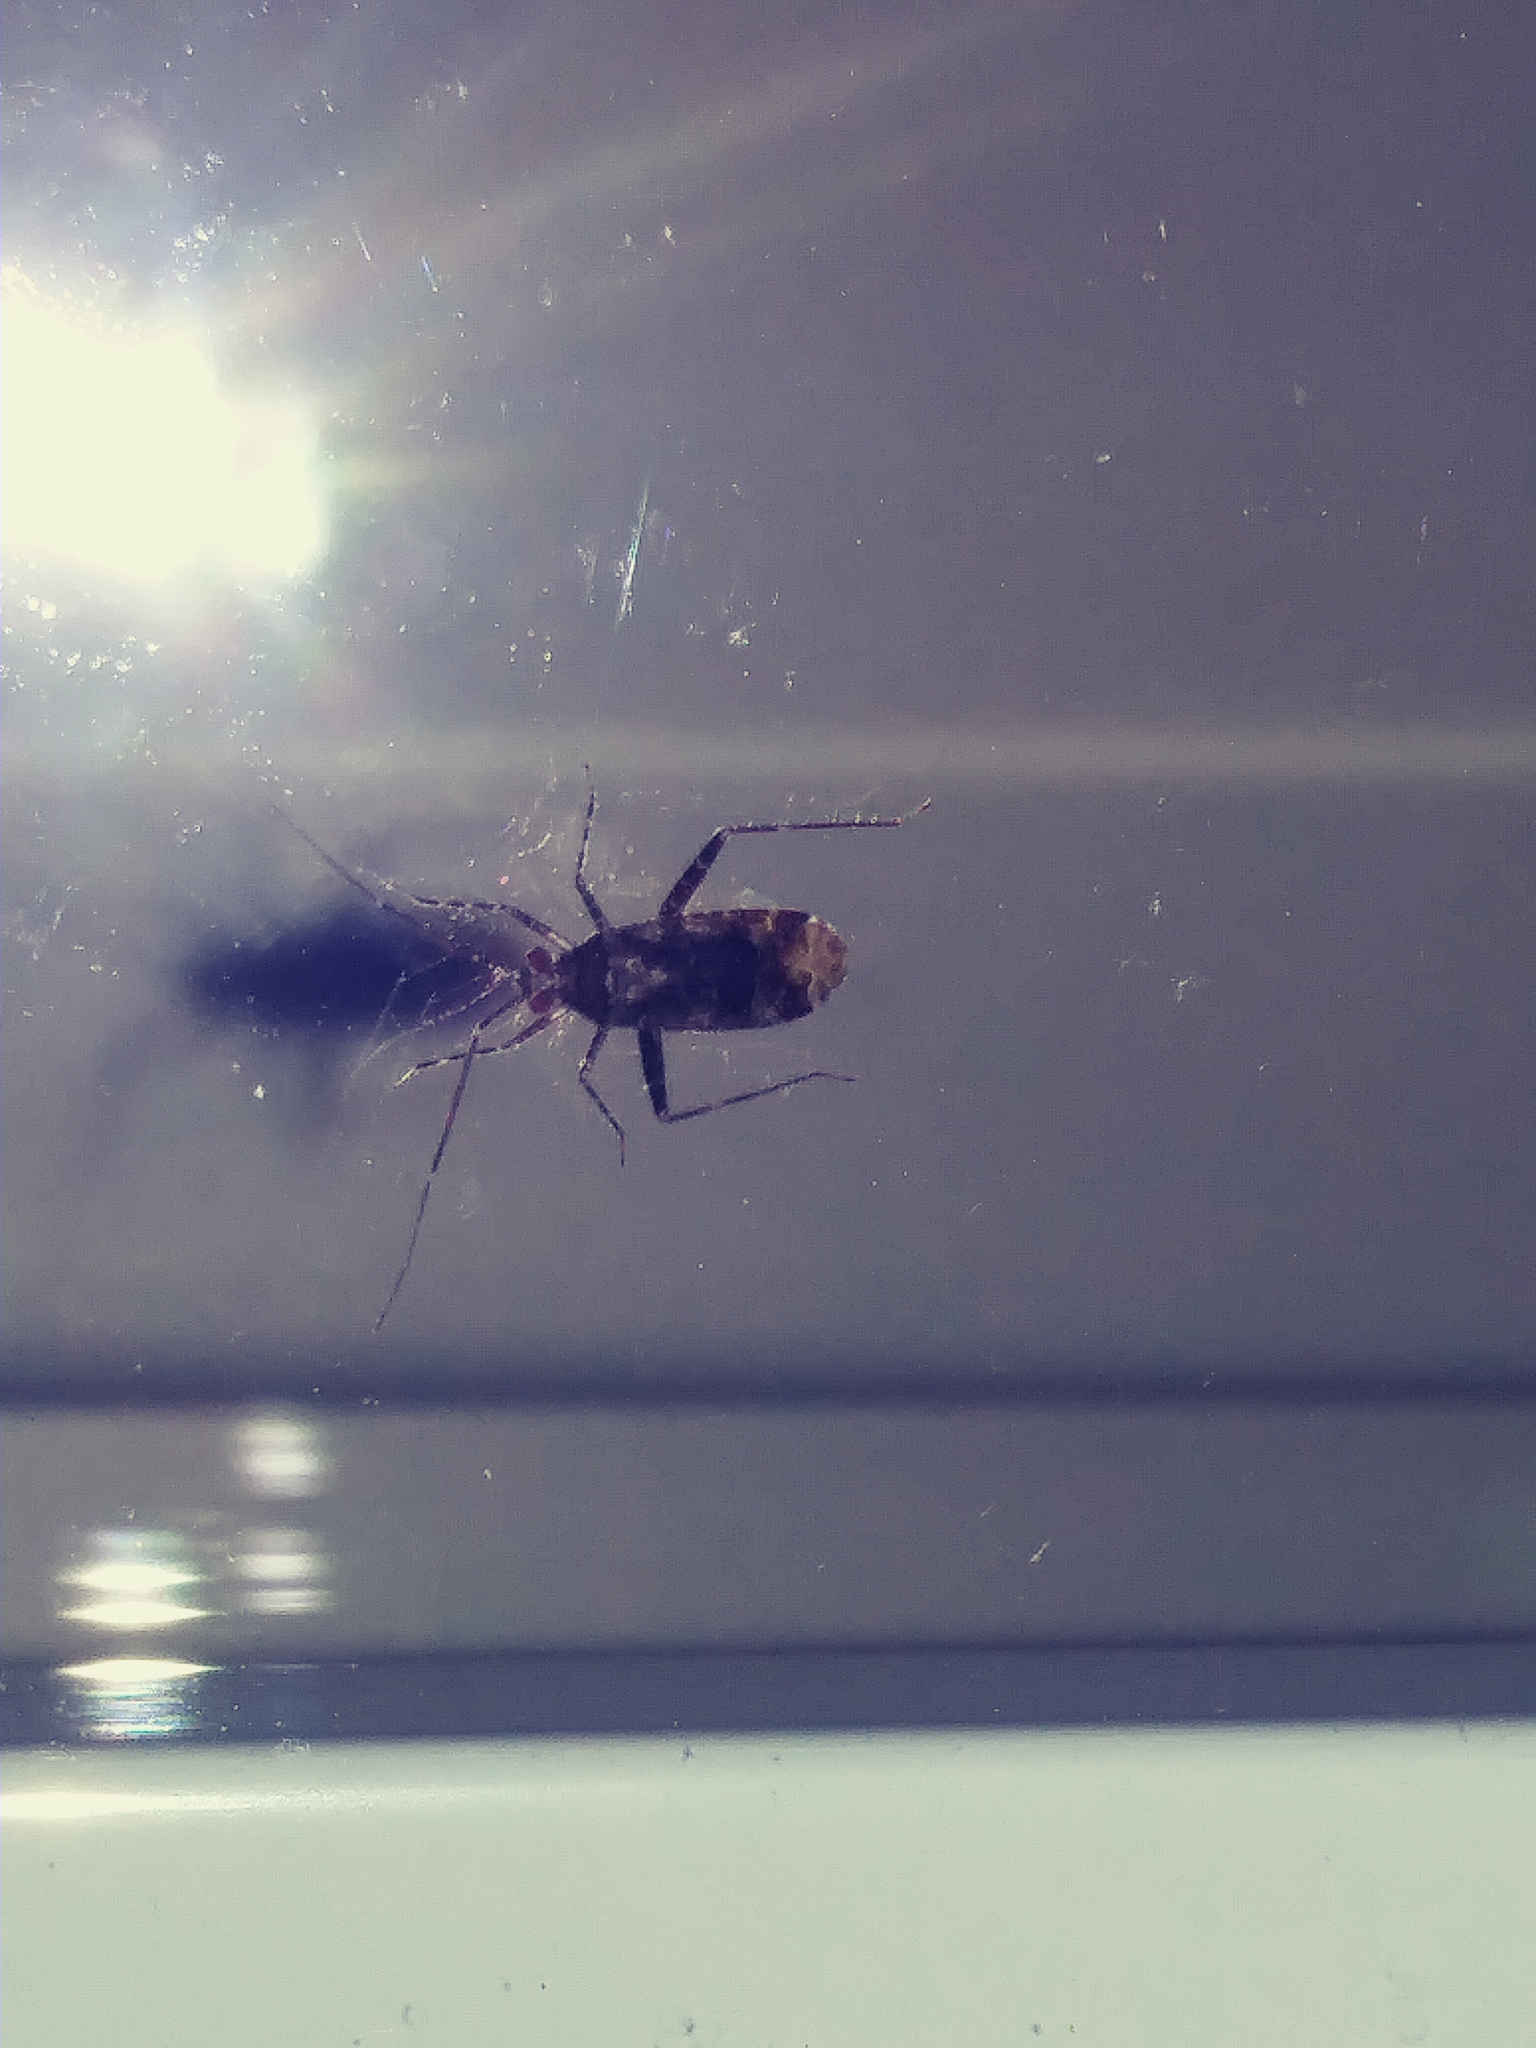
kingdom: Animalia
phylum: Arthropoda
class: Insecta
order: Lepidoptera
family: Pyralidae
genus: Epipaschia
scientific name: Epipaschia superatalis
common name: Dimorphic macalla moth
